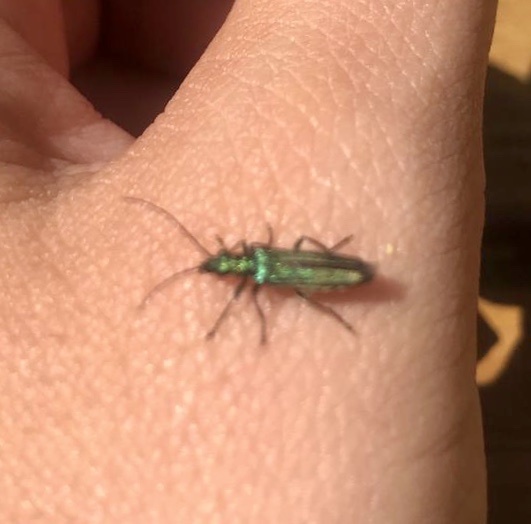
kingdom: Animalia
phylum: Arthropoda
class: Insecta
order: Coleoptera
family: Oedemeridae
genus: Oedemera
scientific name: Oedemera nobilis
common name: Swollen-thighed beetle
